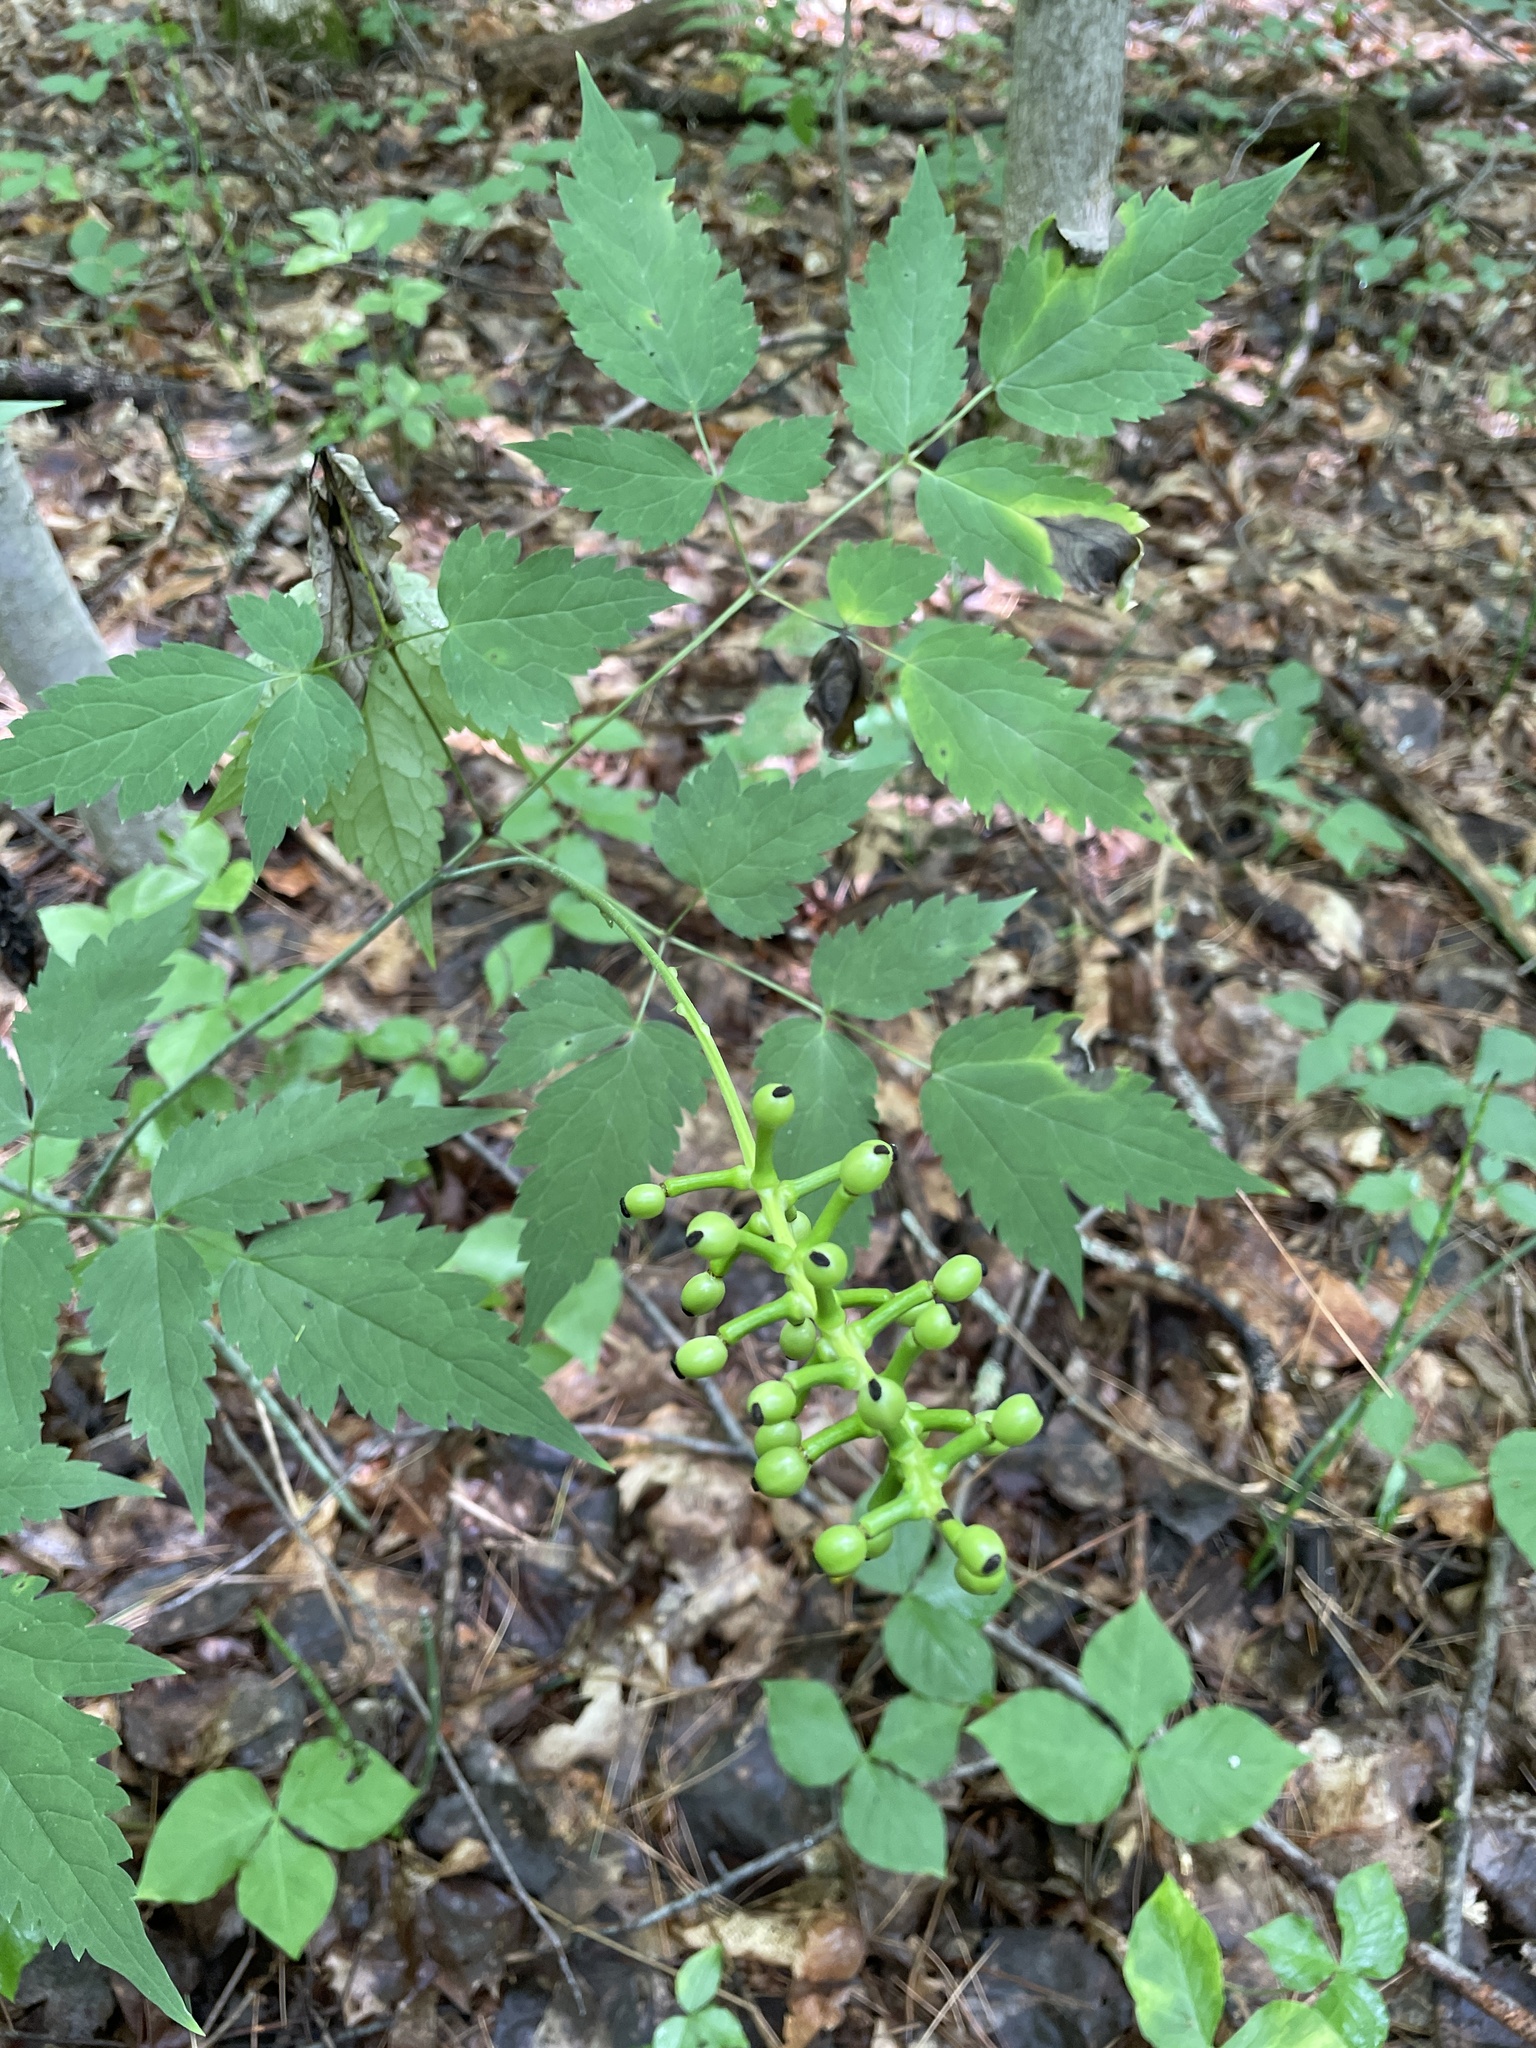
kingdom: Plantae
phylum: Tracheophyta
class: Magnoliopsida
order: Ranunculales
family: Ranunculaceae
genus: Actaea
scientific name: Actaea pachypoda
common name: Doll's-eyes
